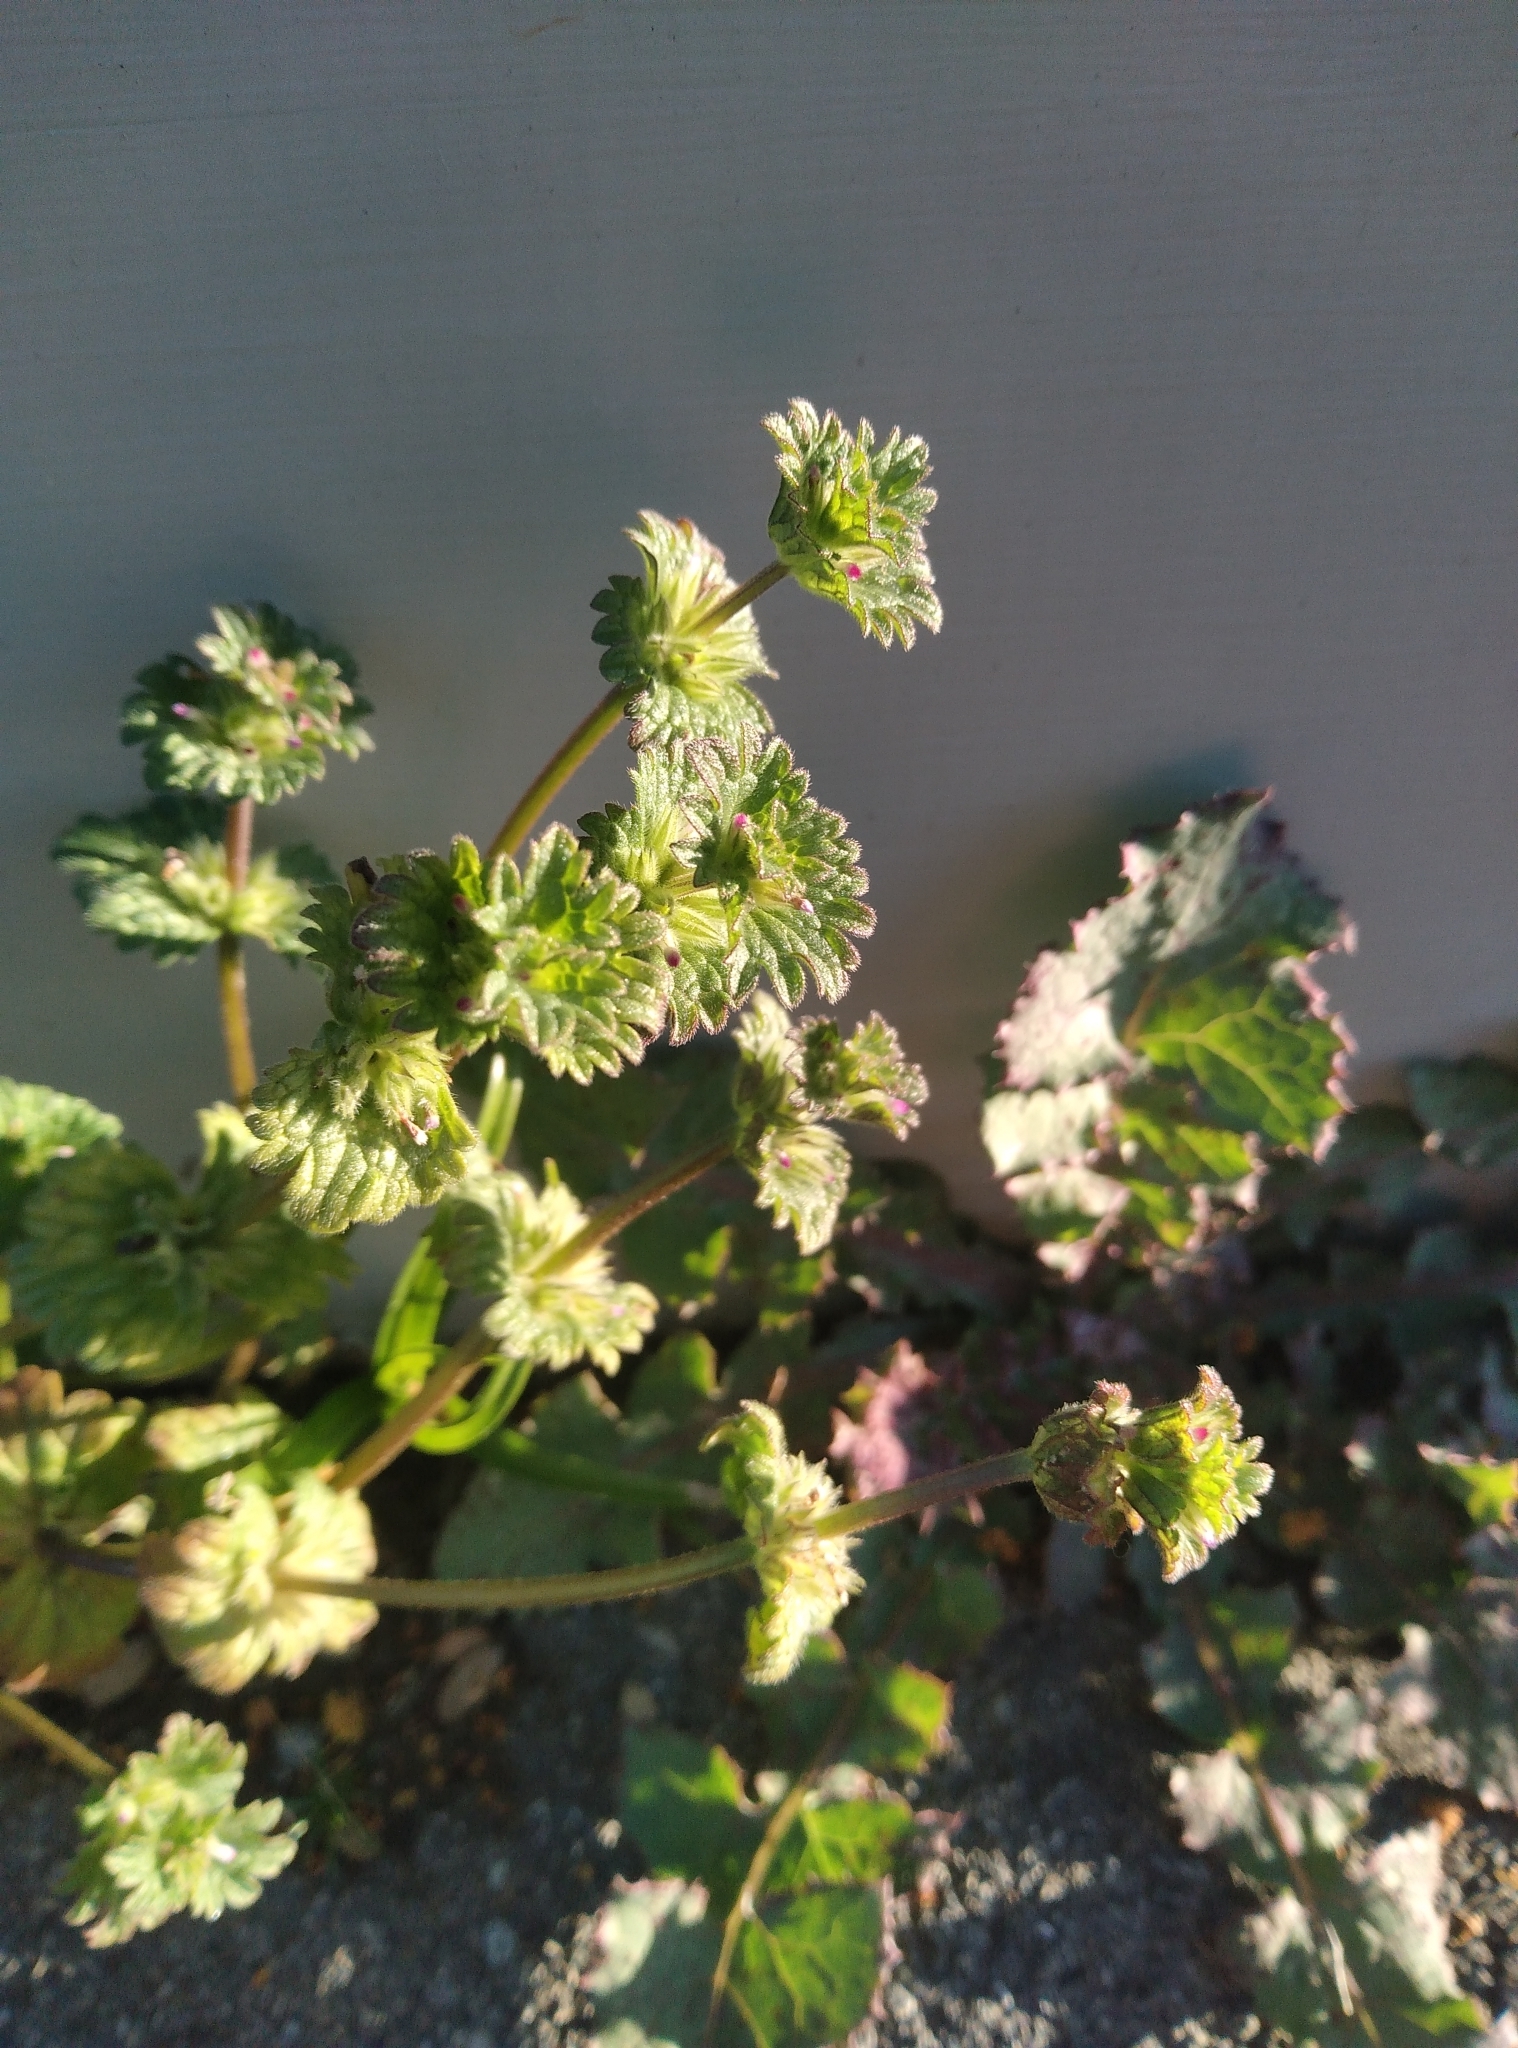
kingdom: Plantae
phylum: Tracheophyta
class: Magnoliopsida
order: Lamiales
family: Lamiaceae
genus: Lamium
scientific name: Lamium amplexicaule
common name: Henbit dead-nettle
